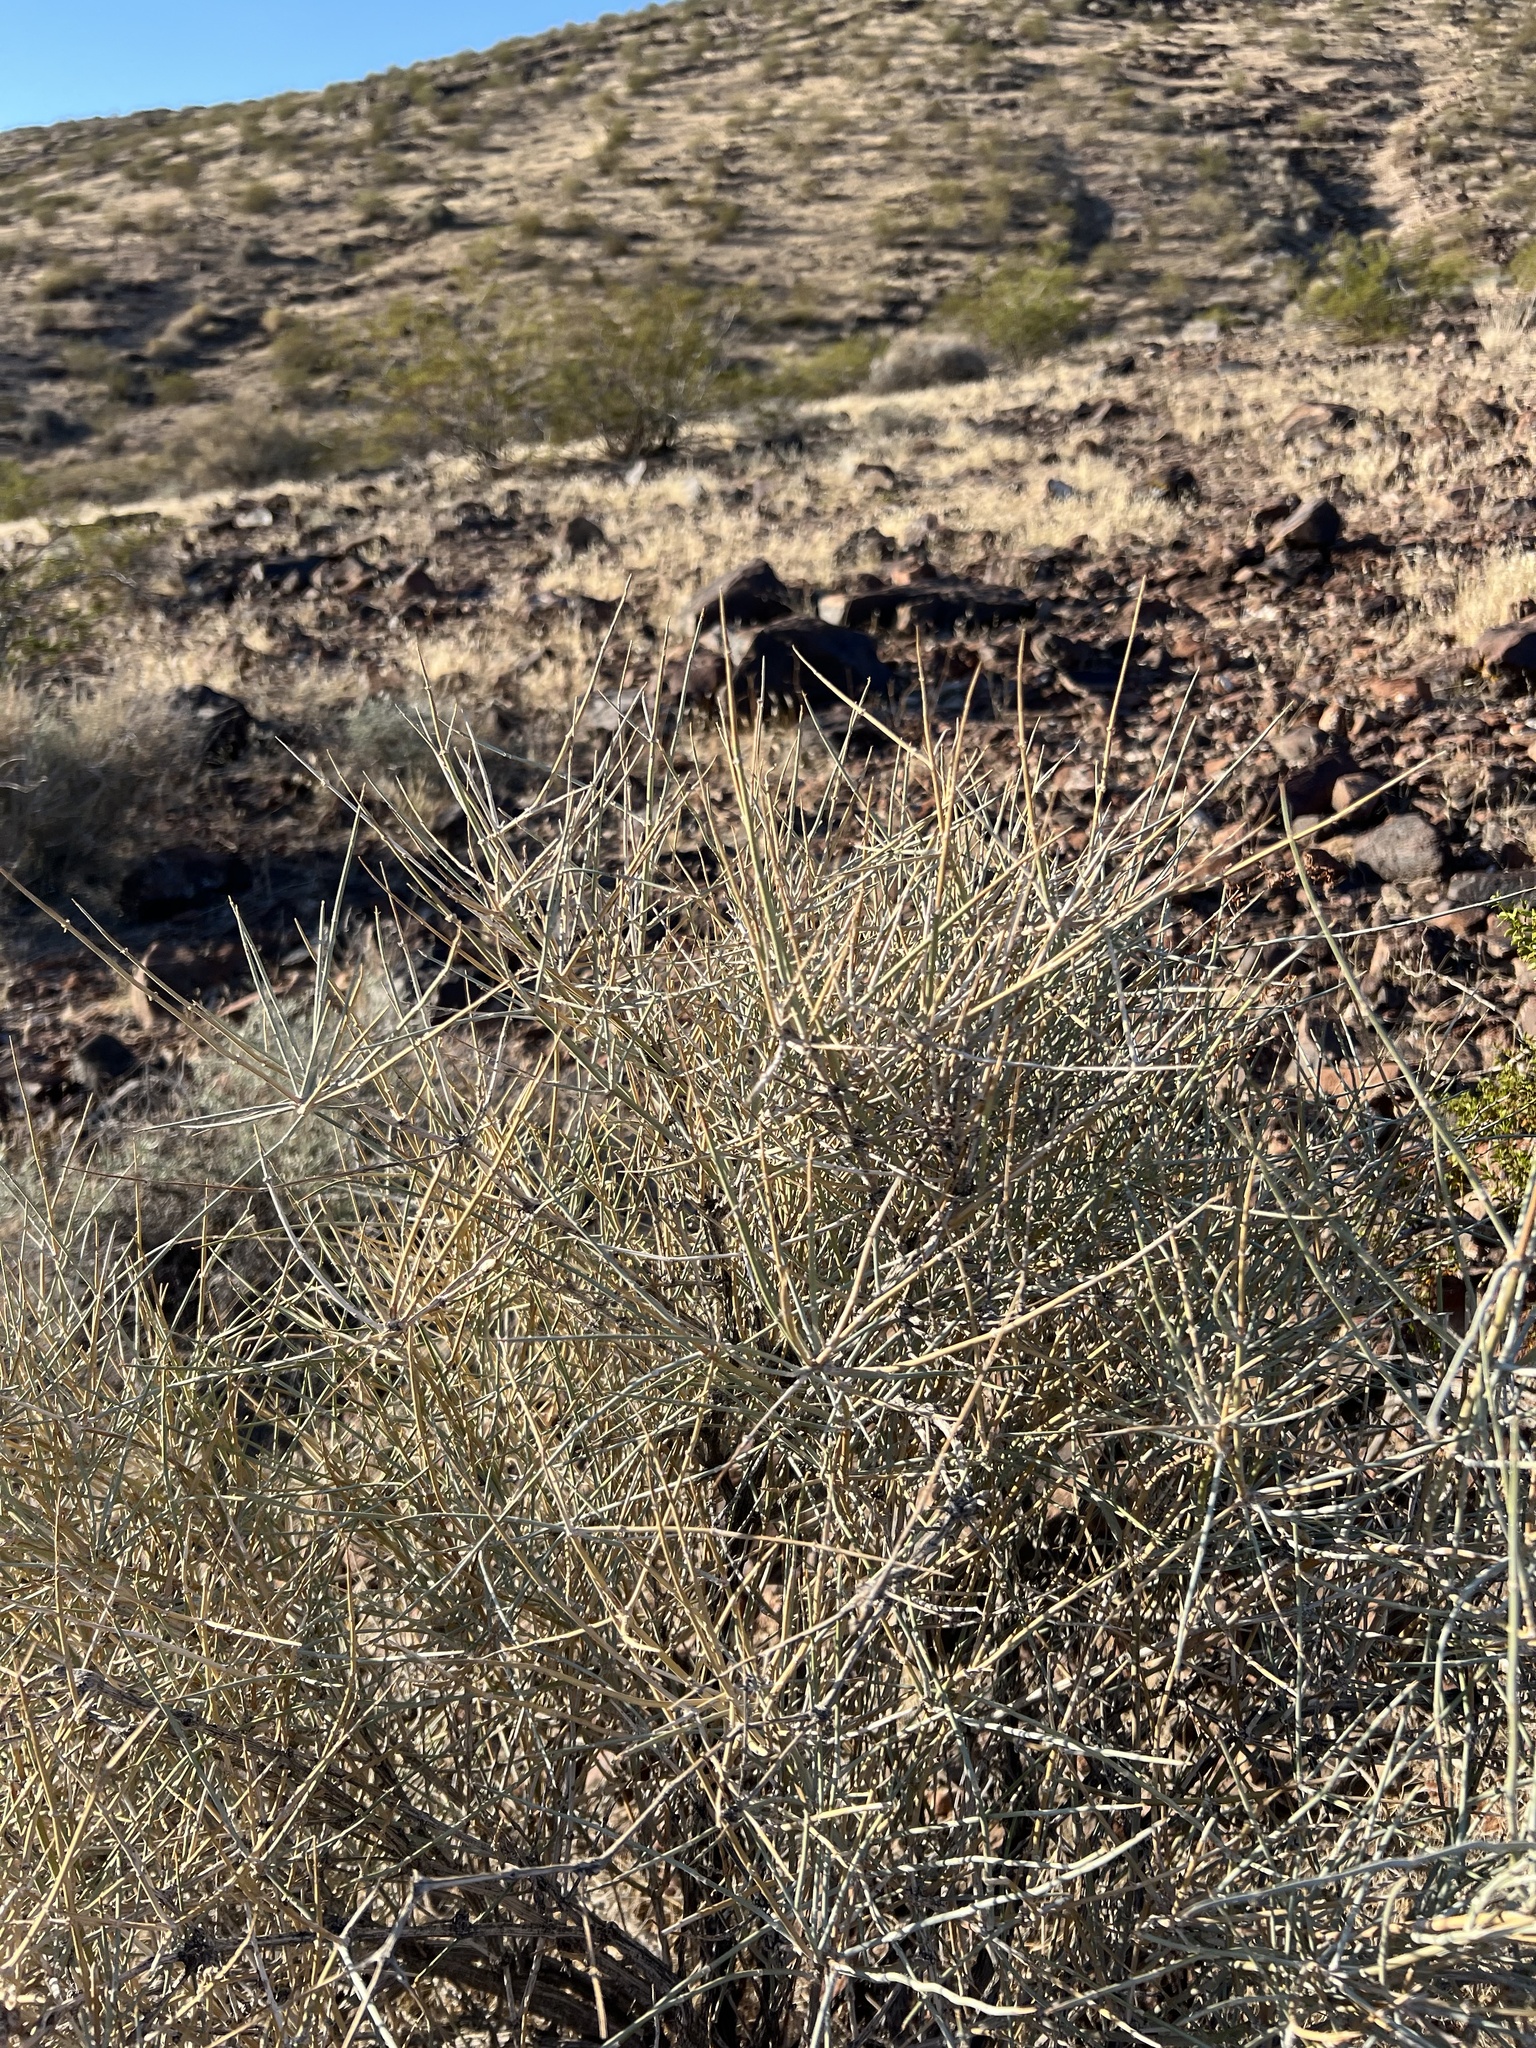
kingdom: Plantae
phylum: Tracheophyta
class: Gnetopsida
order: Ephedrales
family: Ephedraceae
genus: Ephedra
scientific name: Ephedra nevadensis
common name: Gray ephedra
